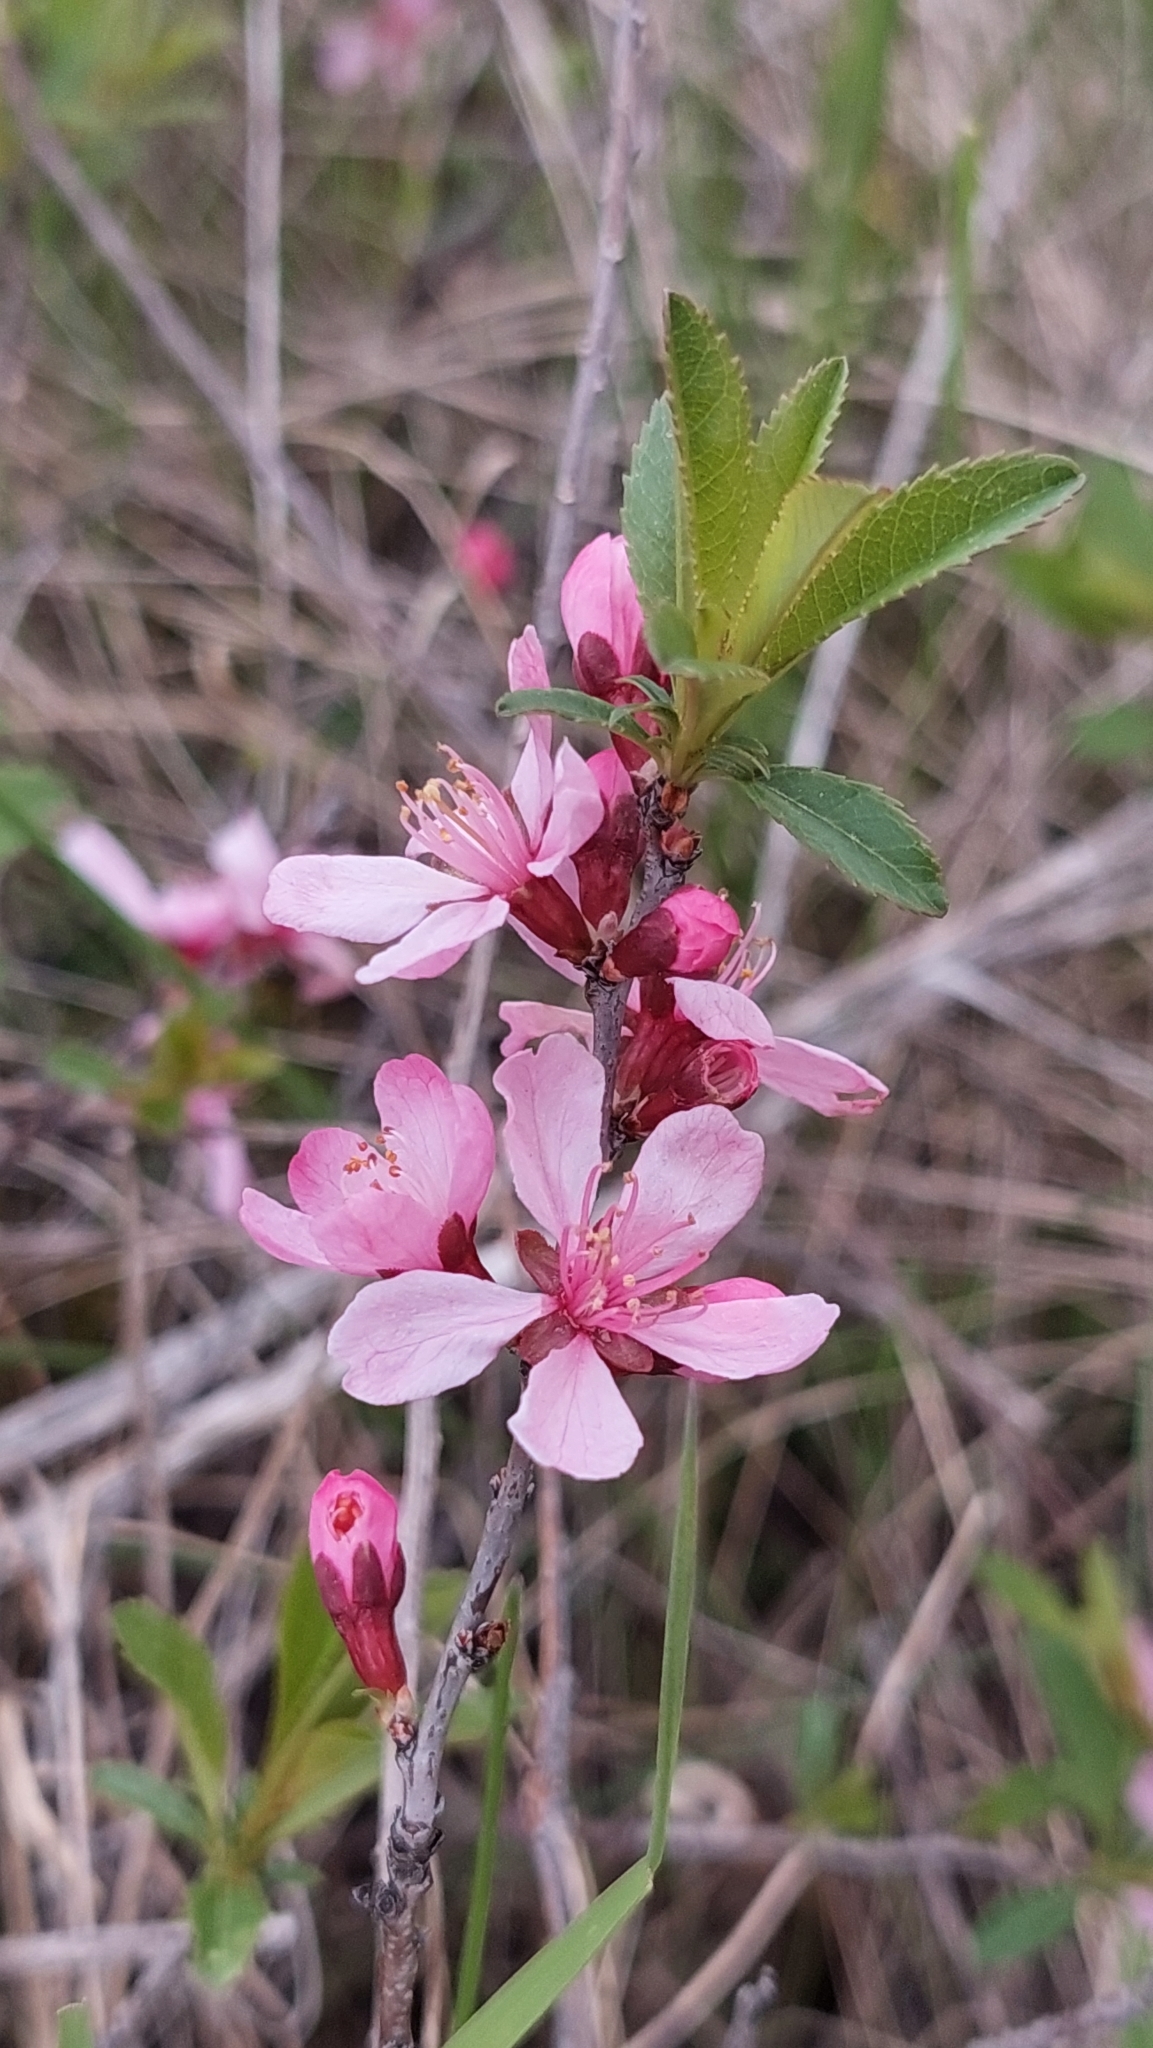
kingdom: Plantae
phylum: Tracheophyta
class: Magnoliopsida
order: Rosales
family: Rosaceae
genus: Prunus
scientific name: Prunus tenella
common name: Dwarf russian almond
